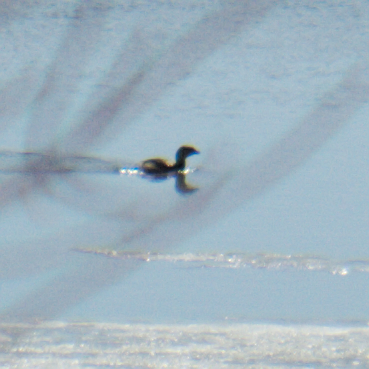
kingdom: Animalia
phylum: Chordata
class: Aves
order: Podicipediformes
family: Podicipedidae
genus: Podilymbus
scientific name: Podilymbus podiceps
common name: Pied-billed grebe
